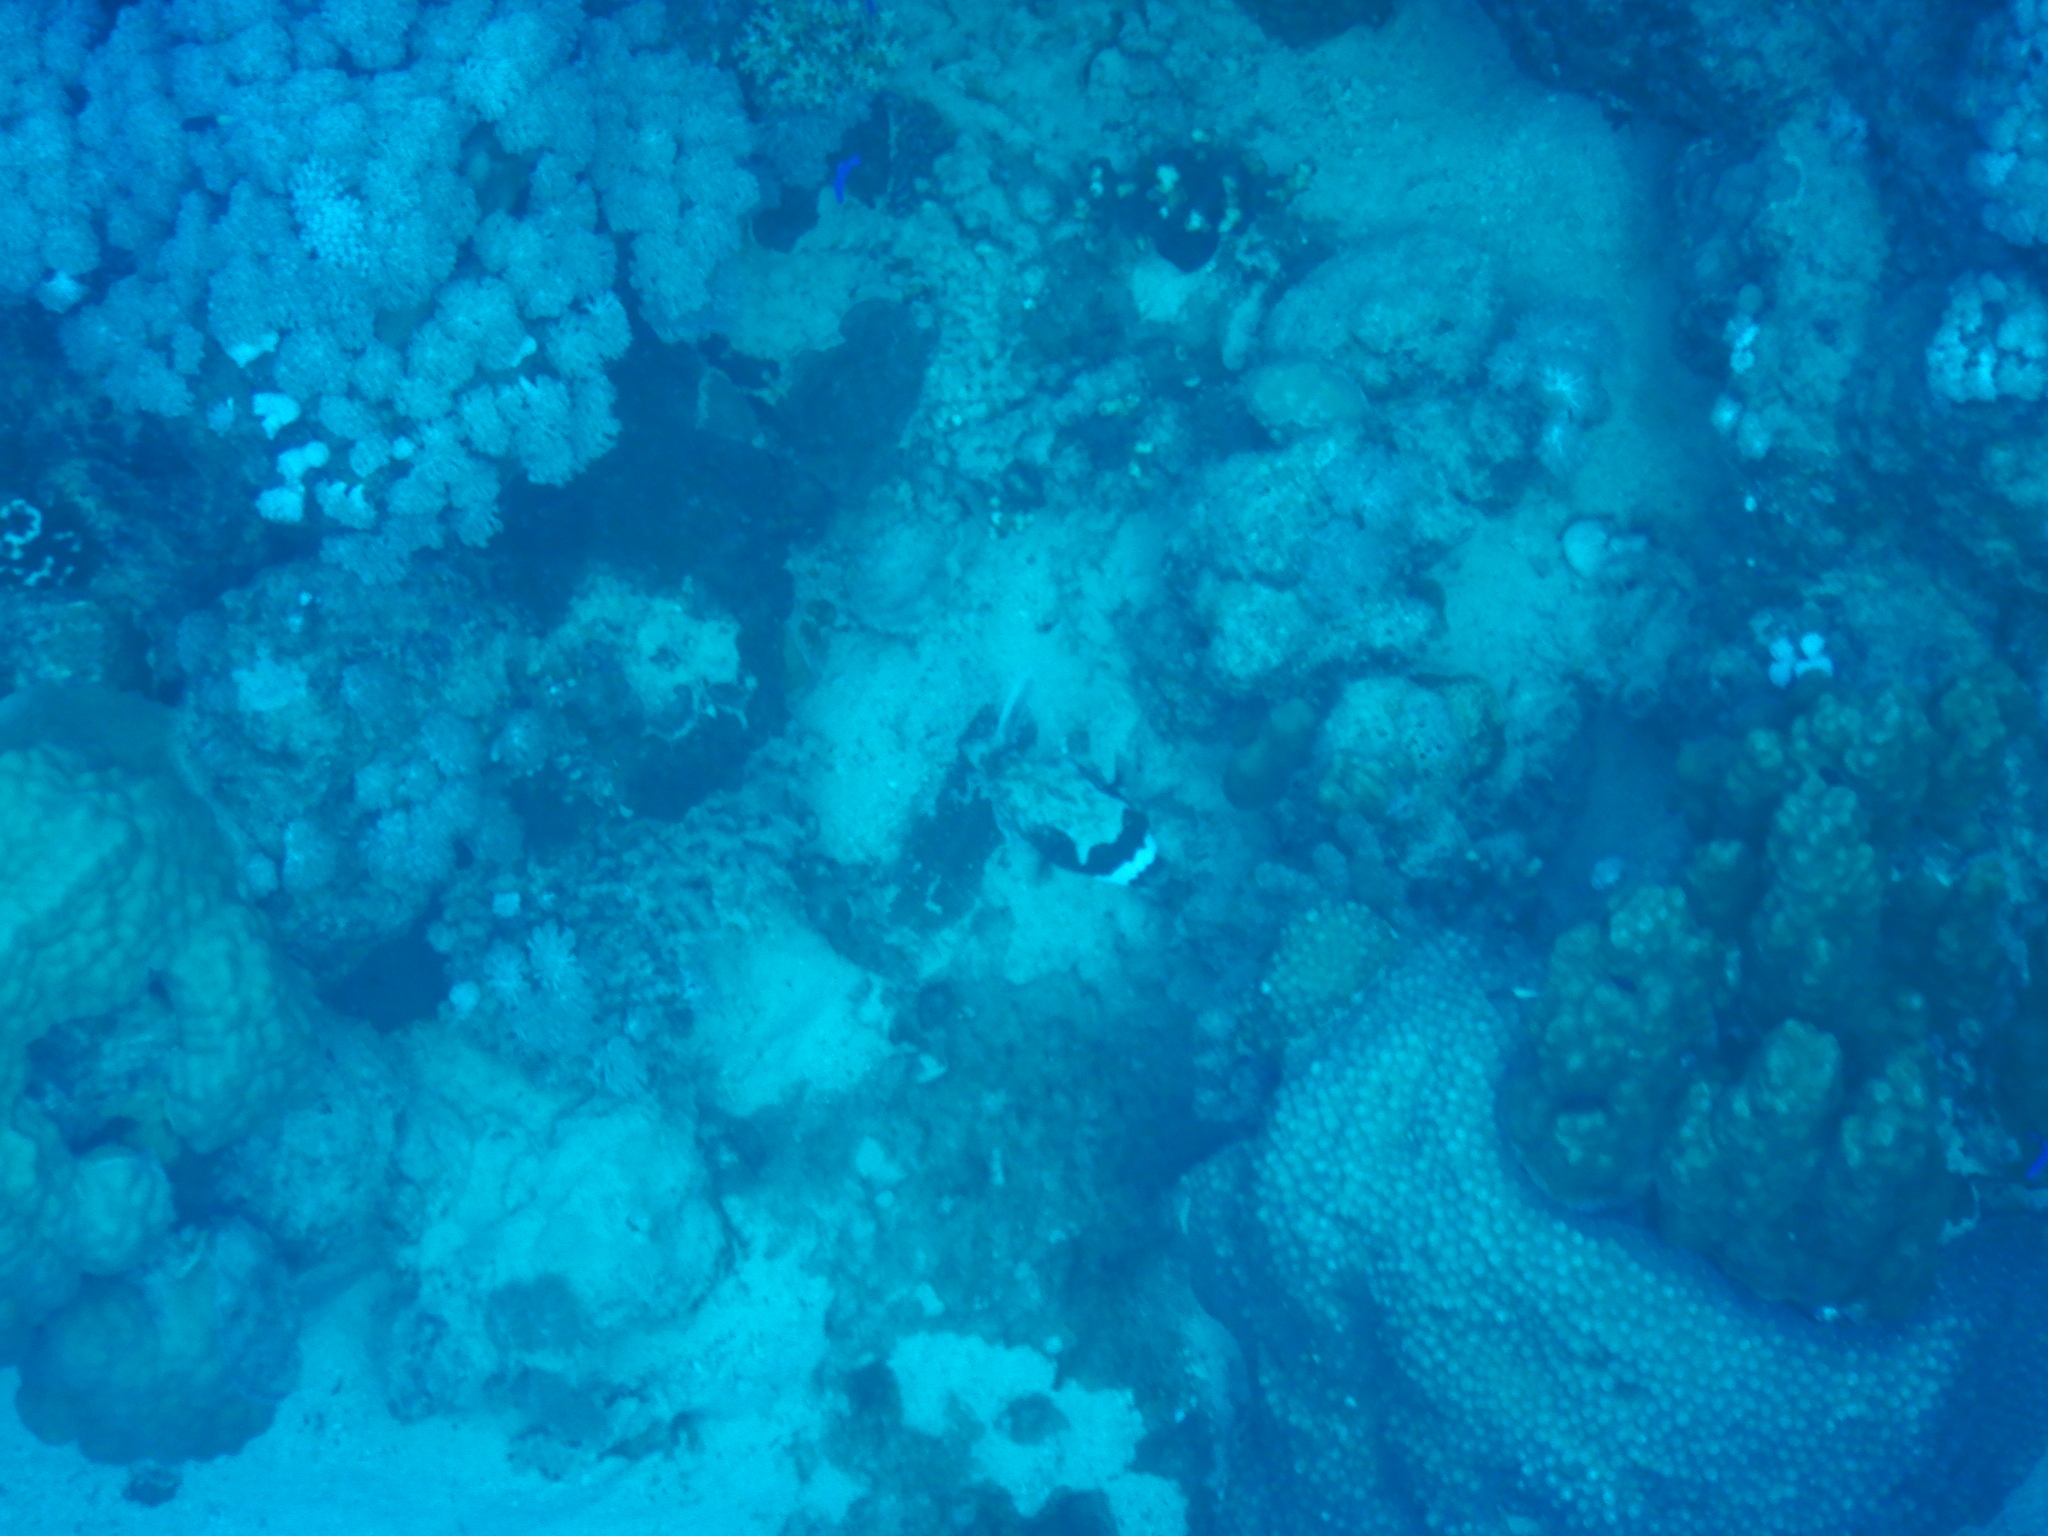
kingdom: Animalia
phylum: Chordata
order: Tetraodontiformes
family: Tetraodontidae
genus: Arothron
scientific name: Arothron diadematus
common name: Masked puffer
